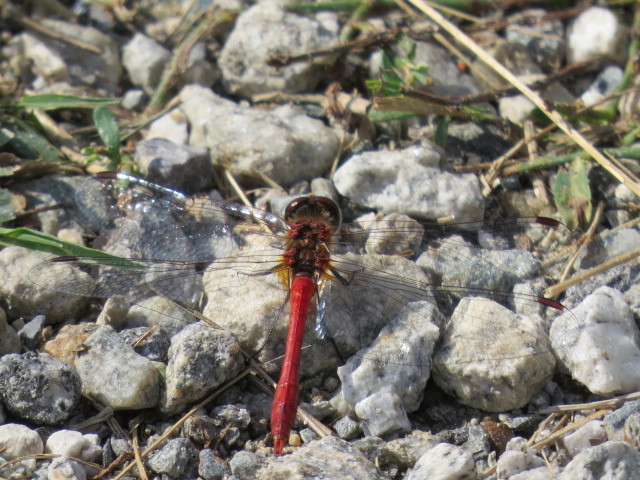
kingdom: Animalia
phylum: Arthropoda
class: Insecta
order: Odonata
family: Libellulidae
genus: Sympetrum
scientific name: Sympetrum sanguineum
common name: Ruddy darter
